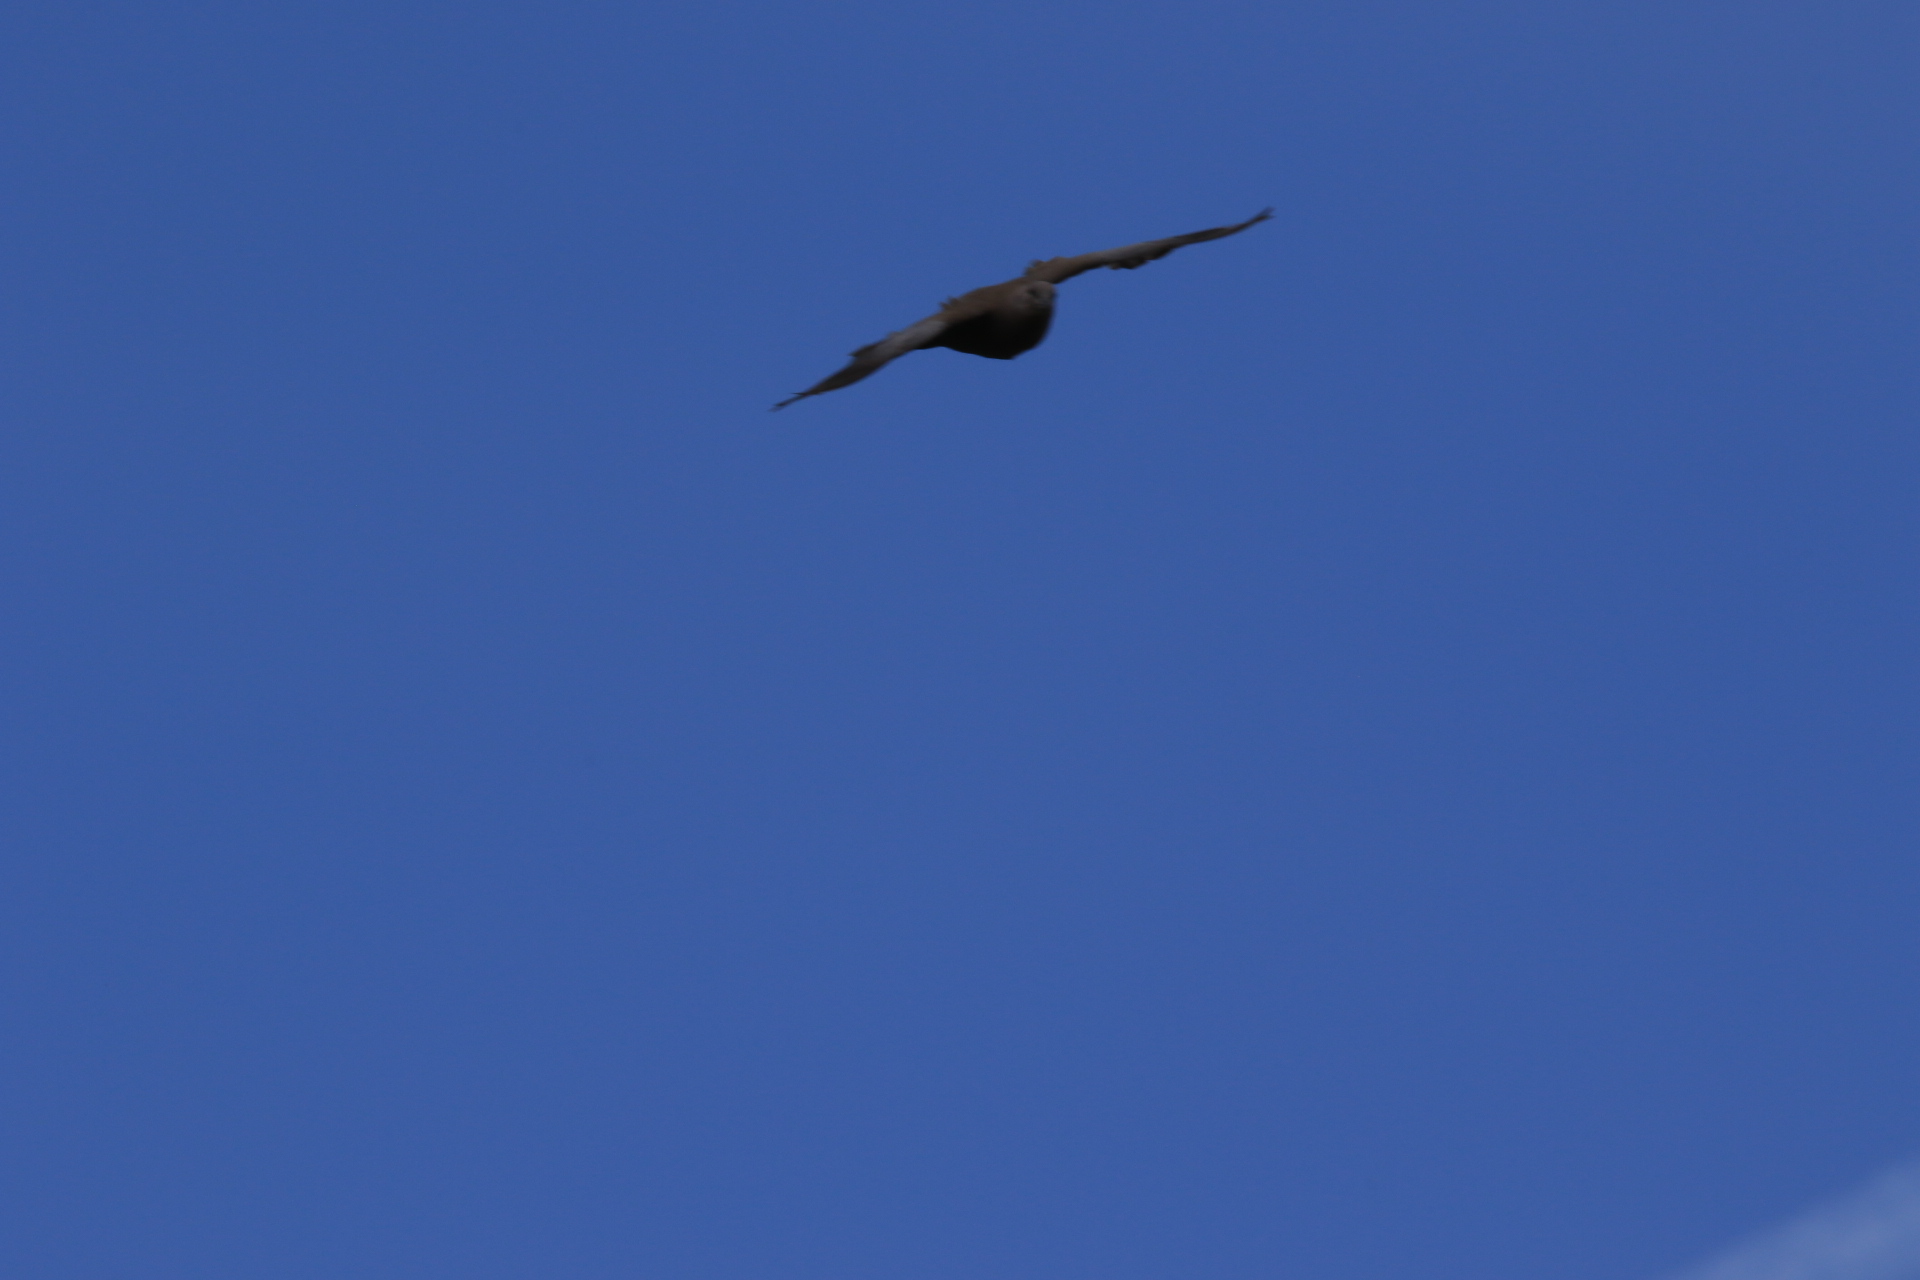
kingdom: Animalia
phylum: Chordata
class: Aves
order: Columbiformes
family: Columbidae
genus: Streptopelia
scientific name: Streptopelia decaocto
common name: Eurasian collared dove
